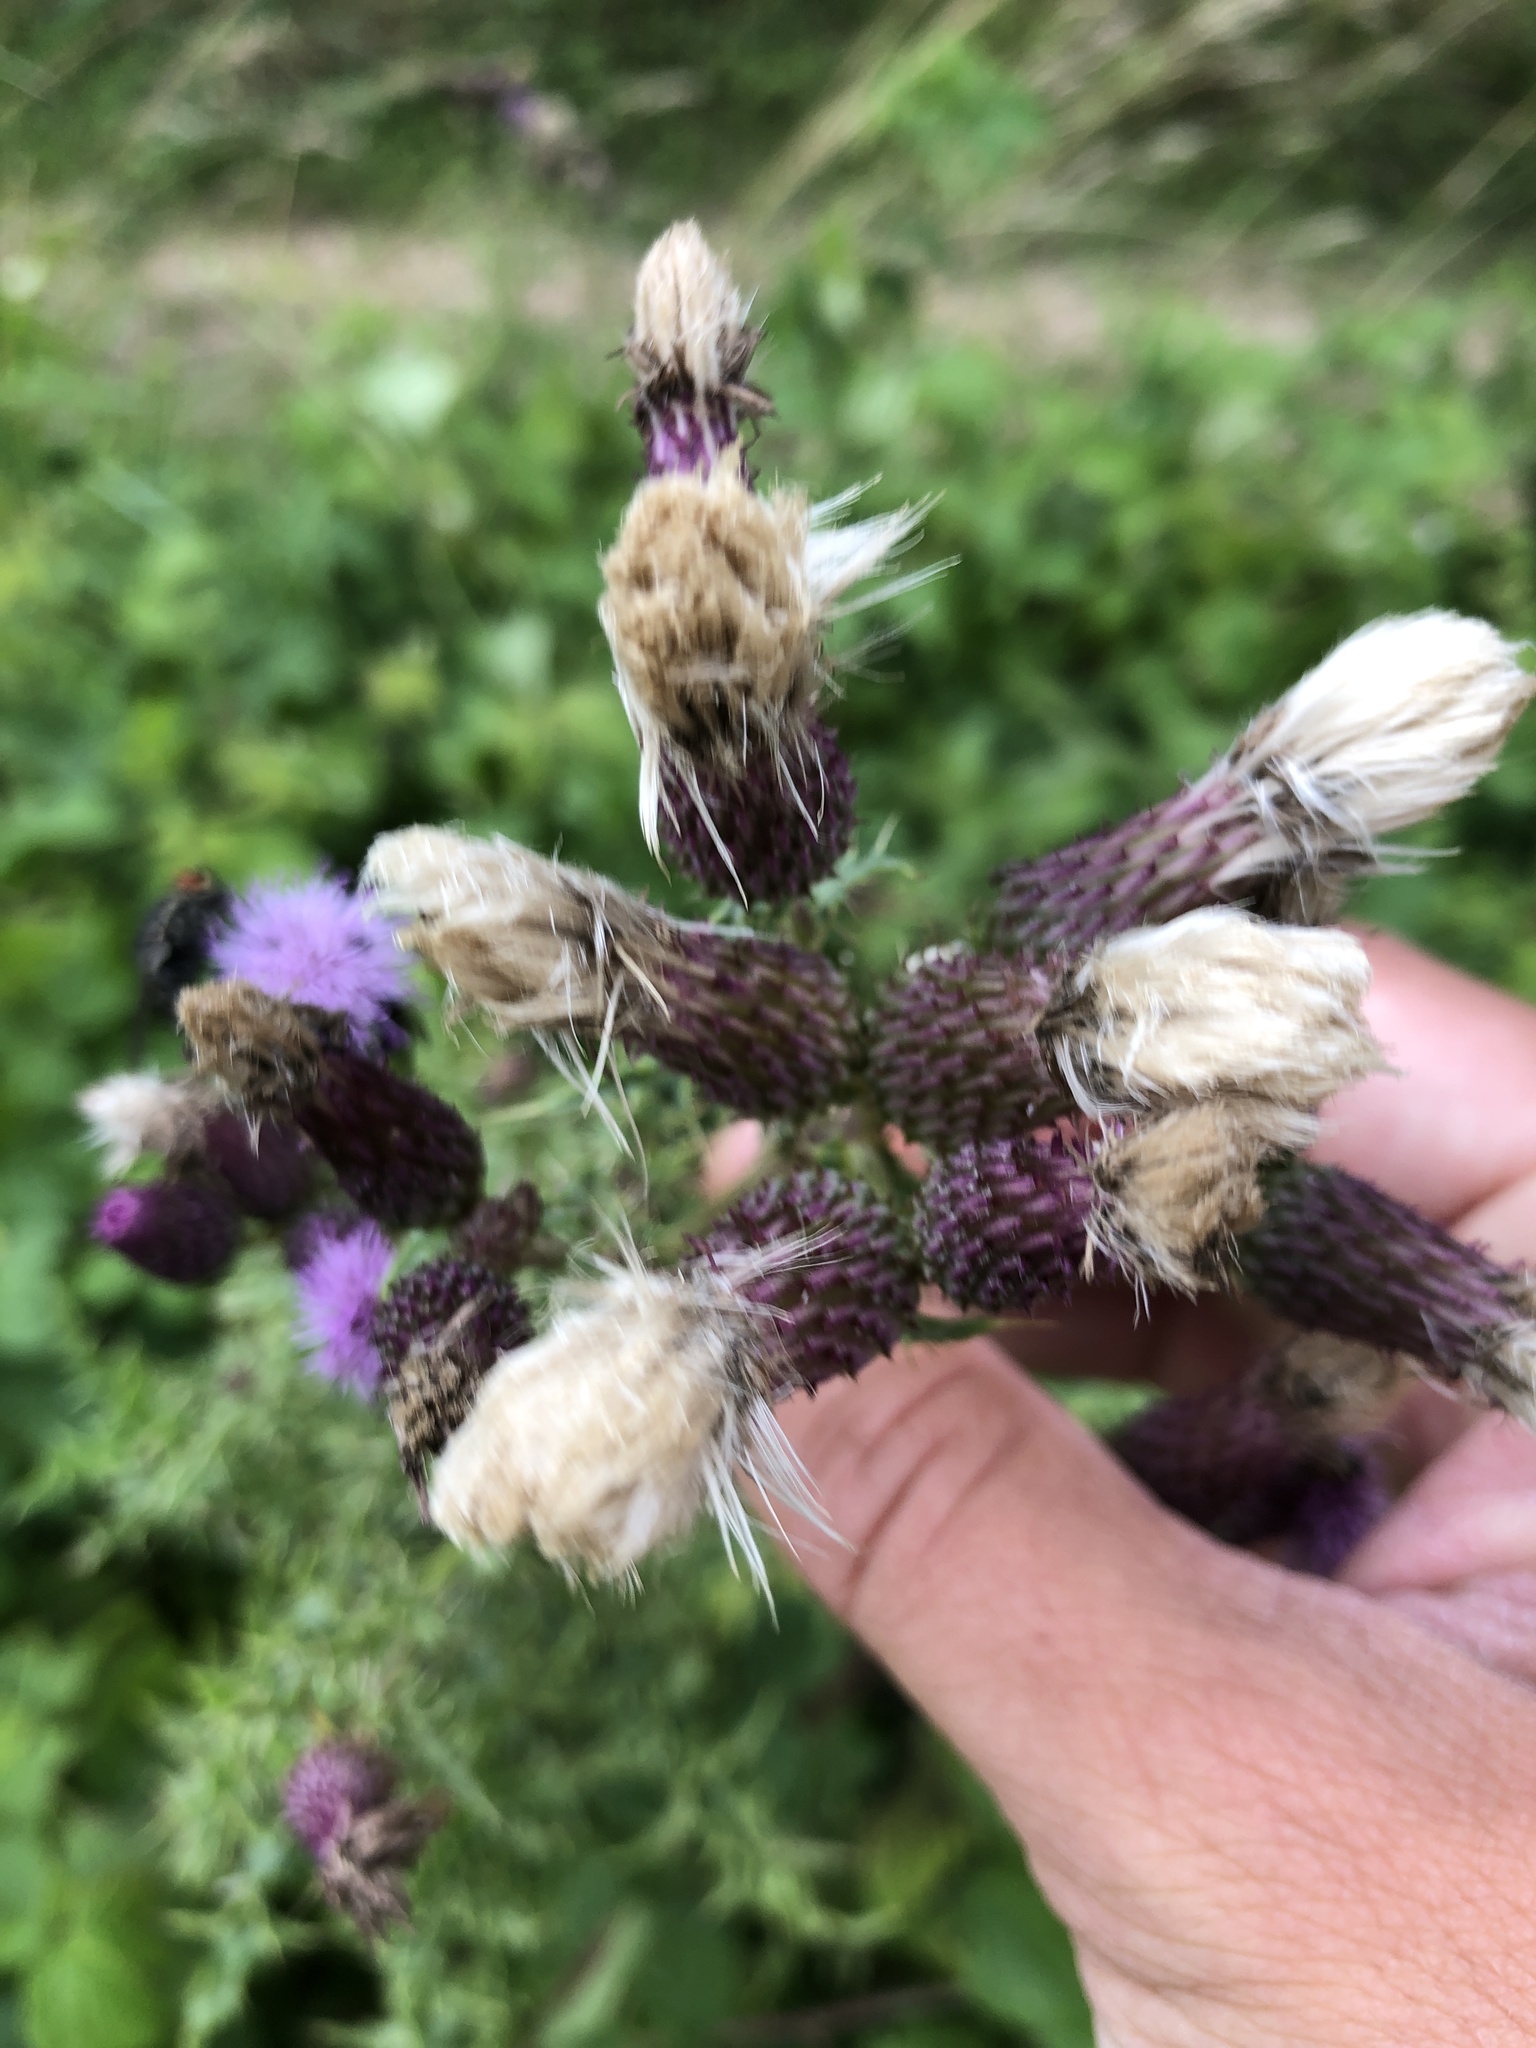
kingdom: Plantae
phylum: Tracheophyta
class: Magnoliopsida
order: Asterales
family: Asteraceae
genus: Cirsium
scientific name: Cirsium arvense
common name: Creeping thistle
